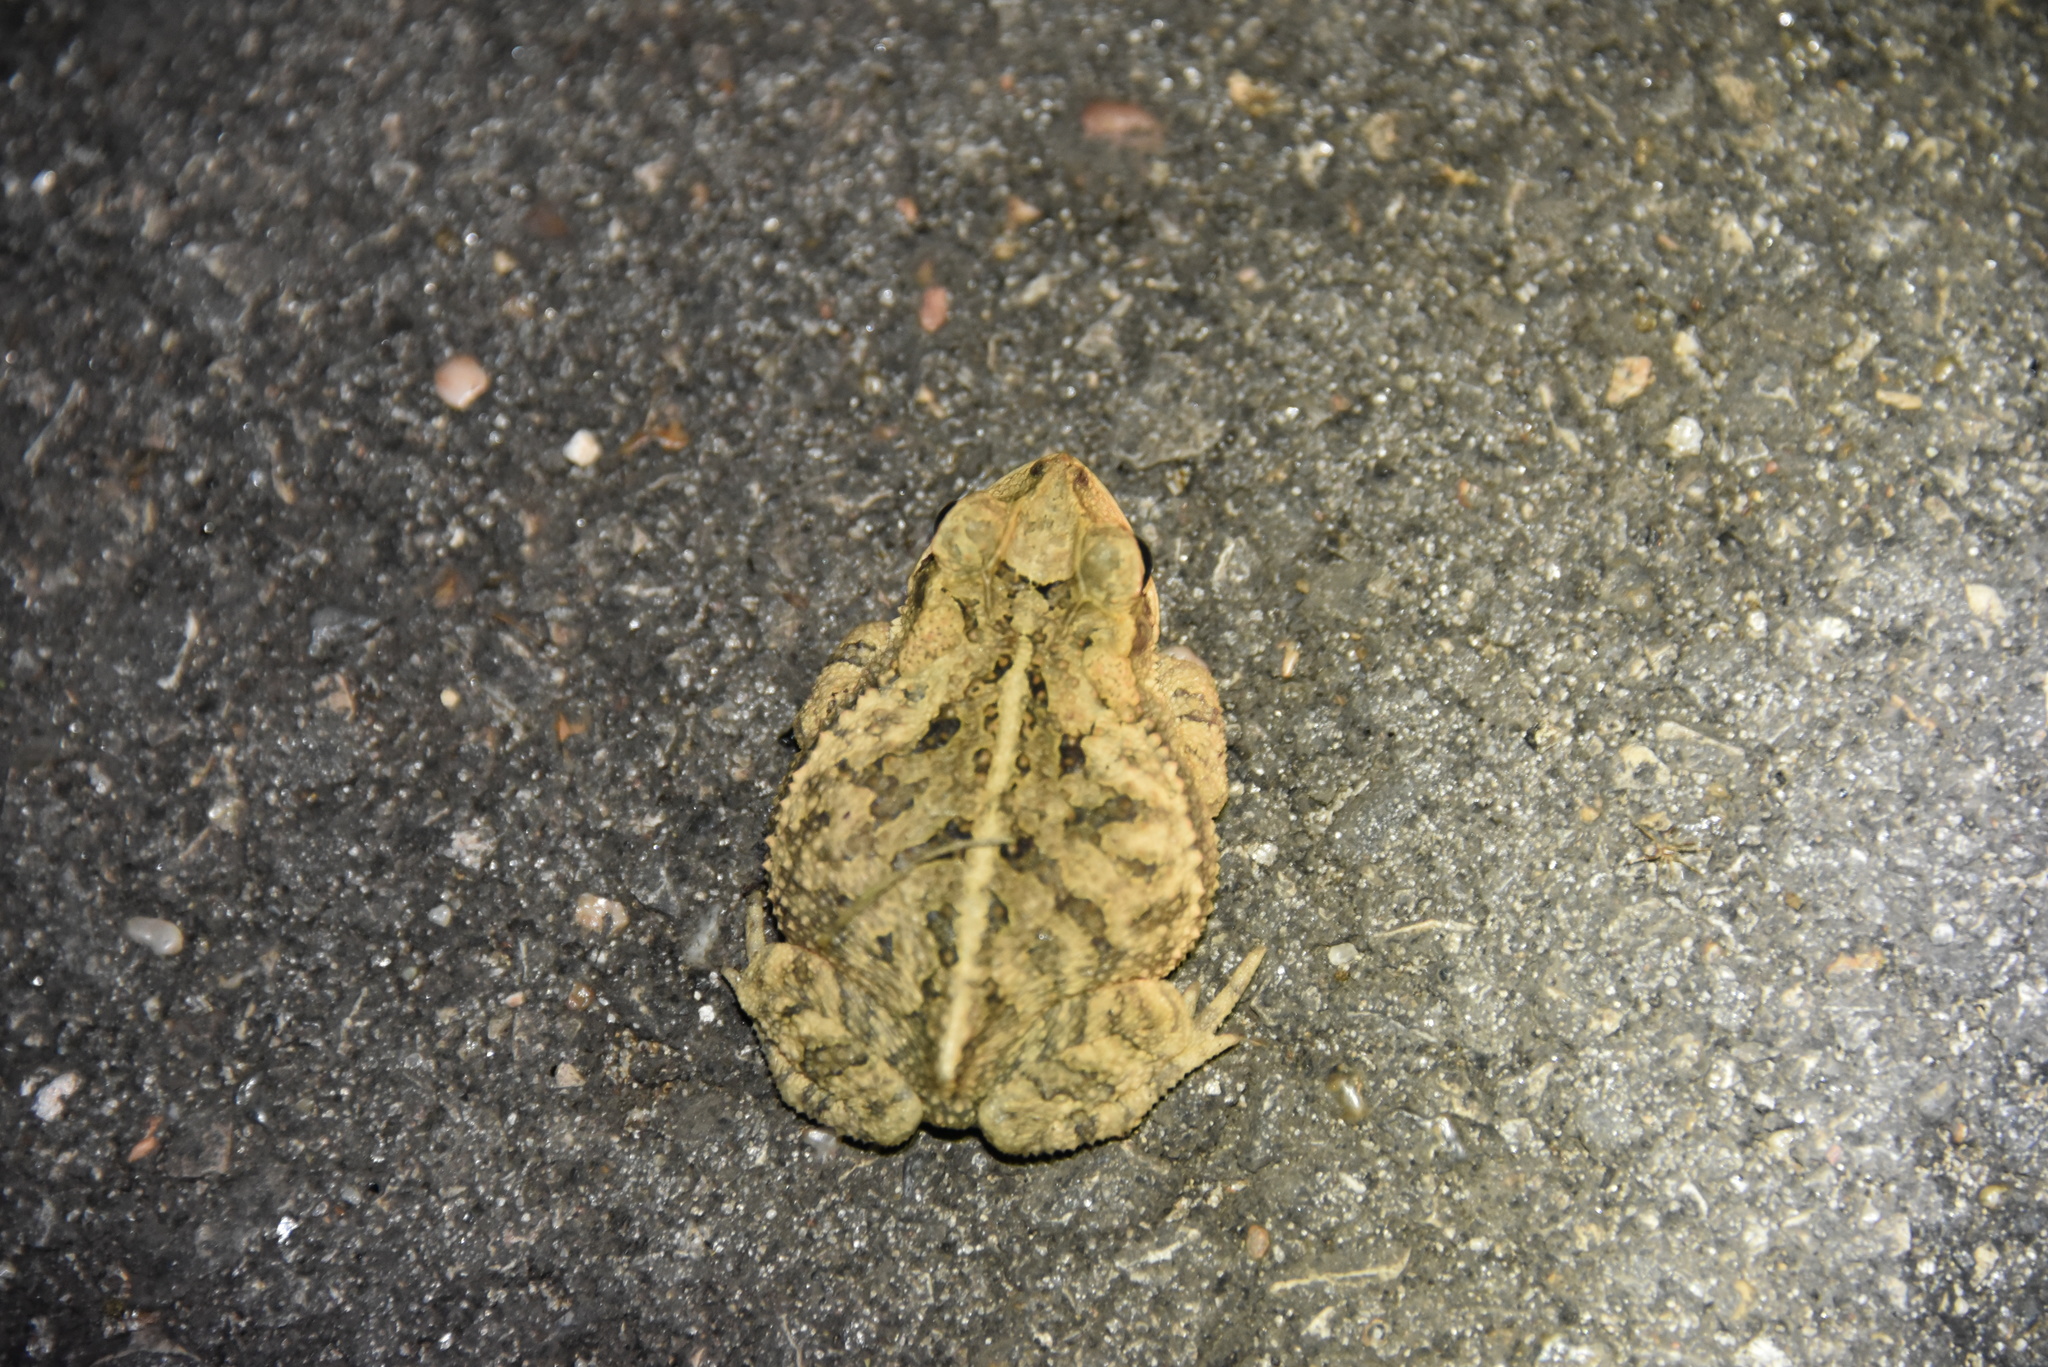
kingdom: Animalia
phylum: Chordata
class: Amphibia
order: Anura
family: Bufonidae
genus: Incilius
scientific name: Incilius nebulifer
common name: Gulf coast toad
